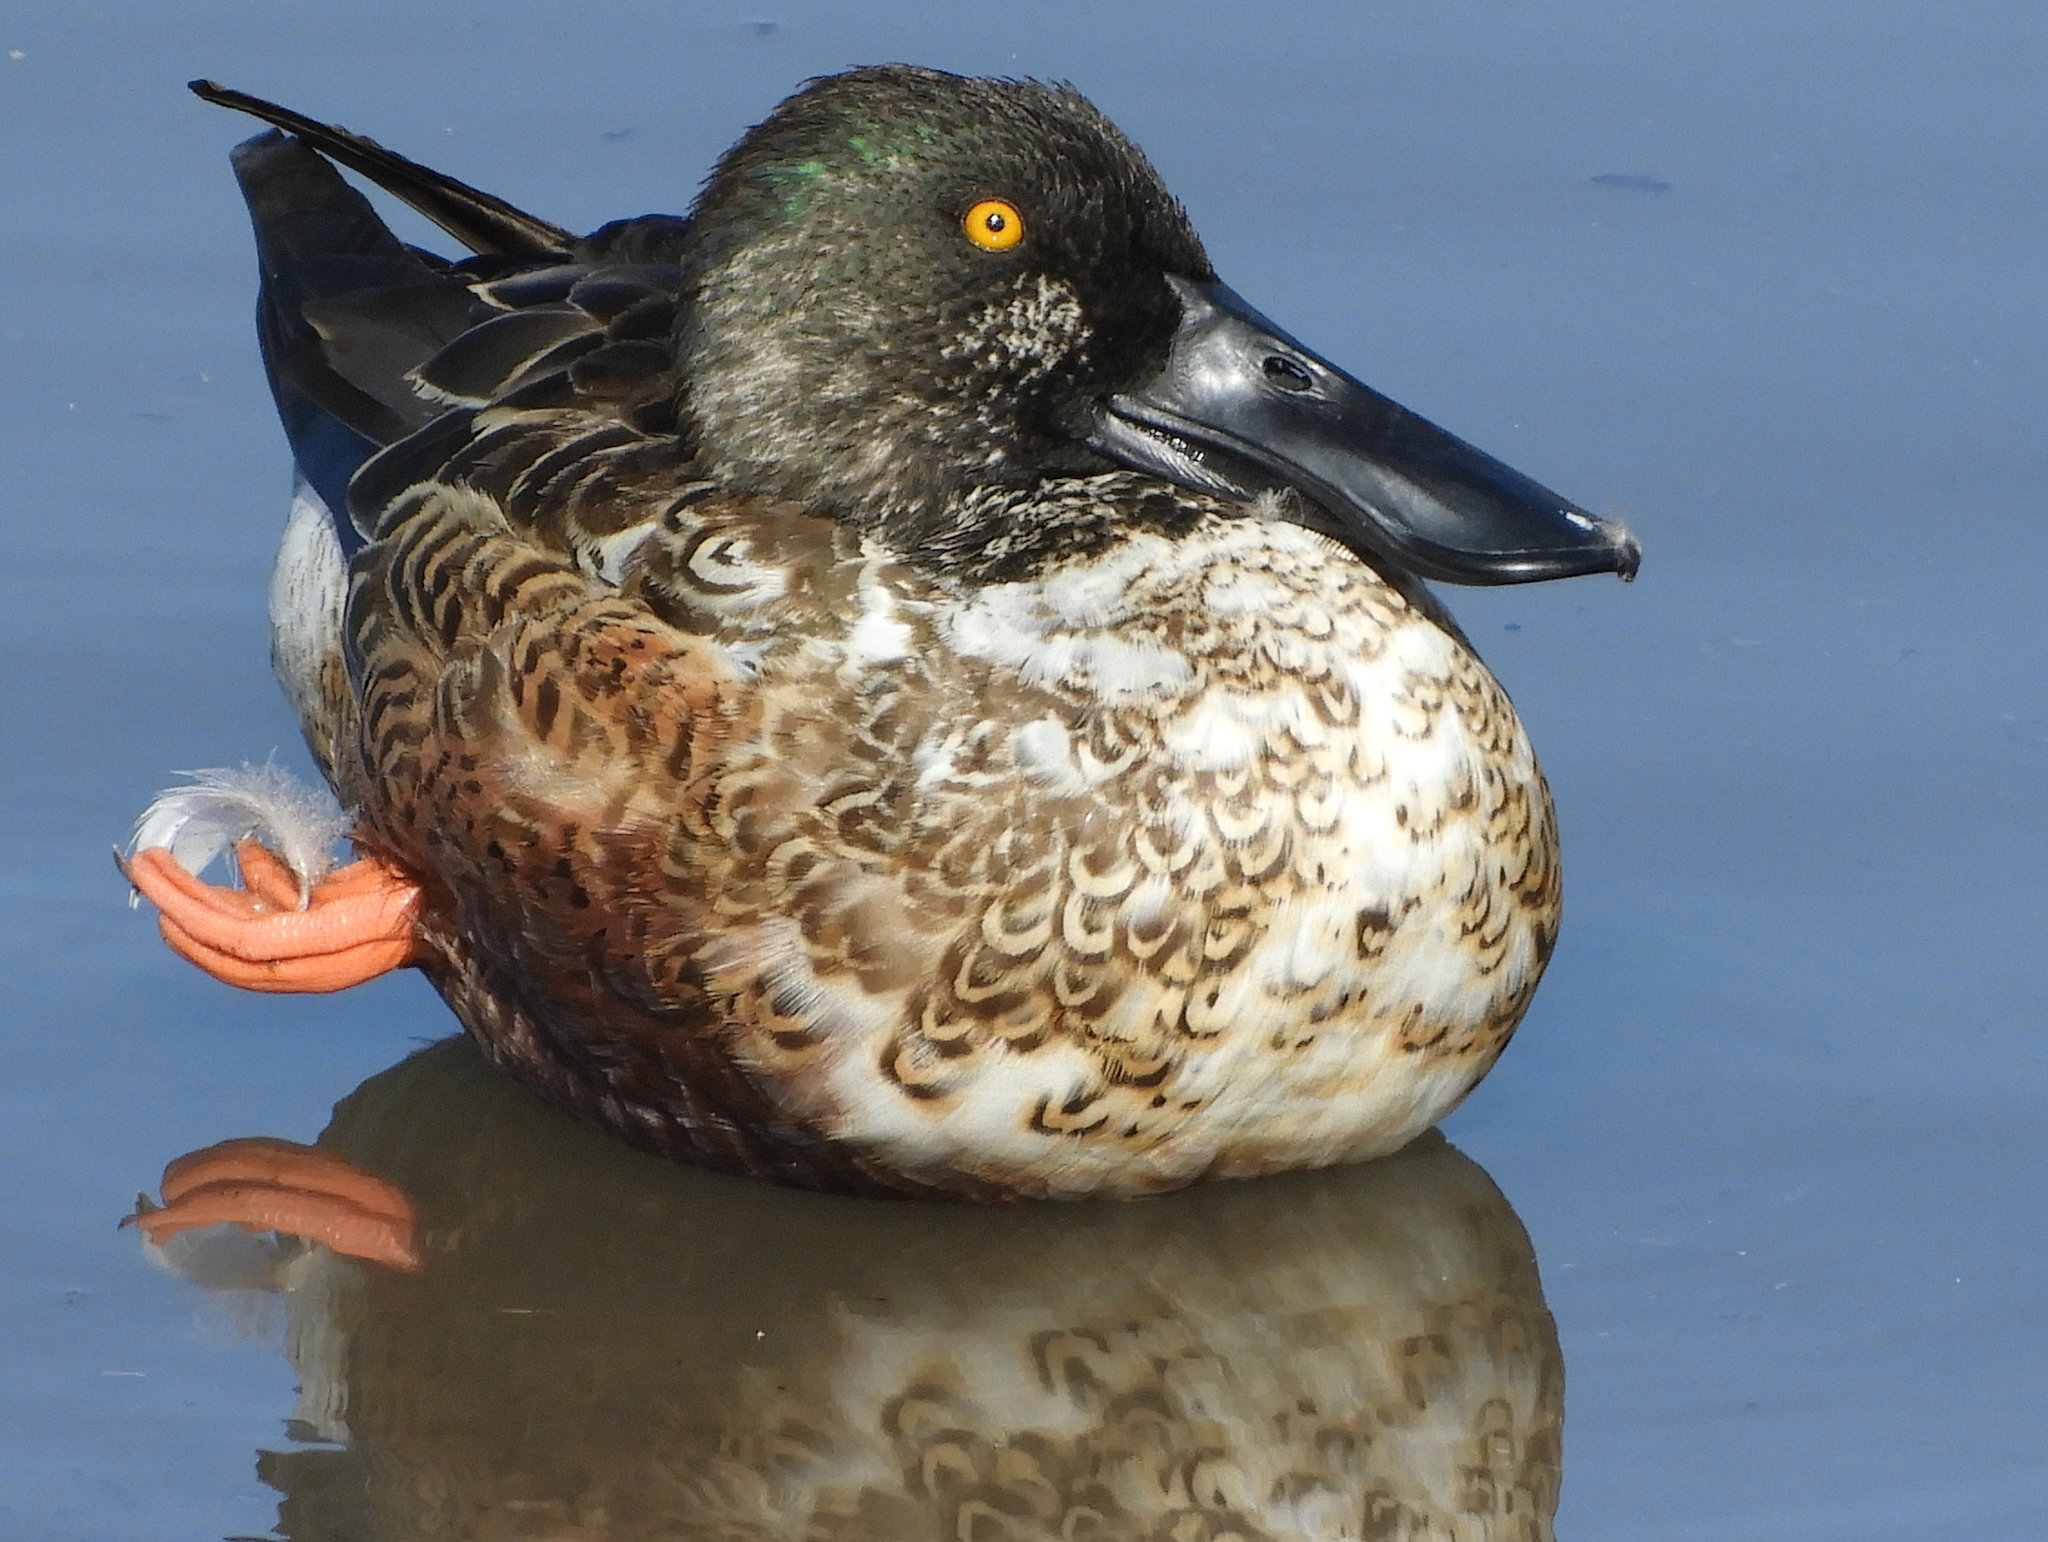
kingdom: Animalia
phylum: Chordata
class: Aves
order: Anseriformes
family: Anatidae
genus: Spatula
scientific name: Spatula clypeata
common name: Northern shoveler
